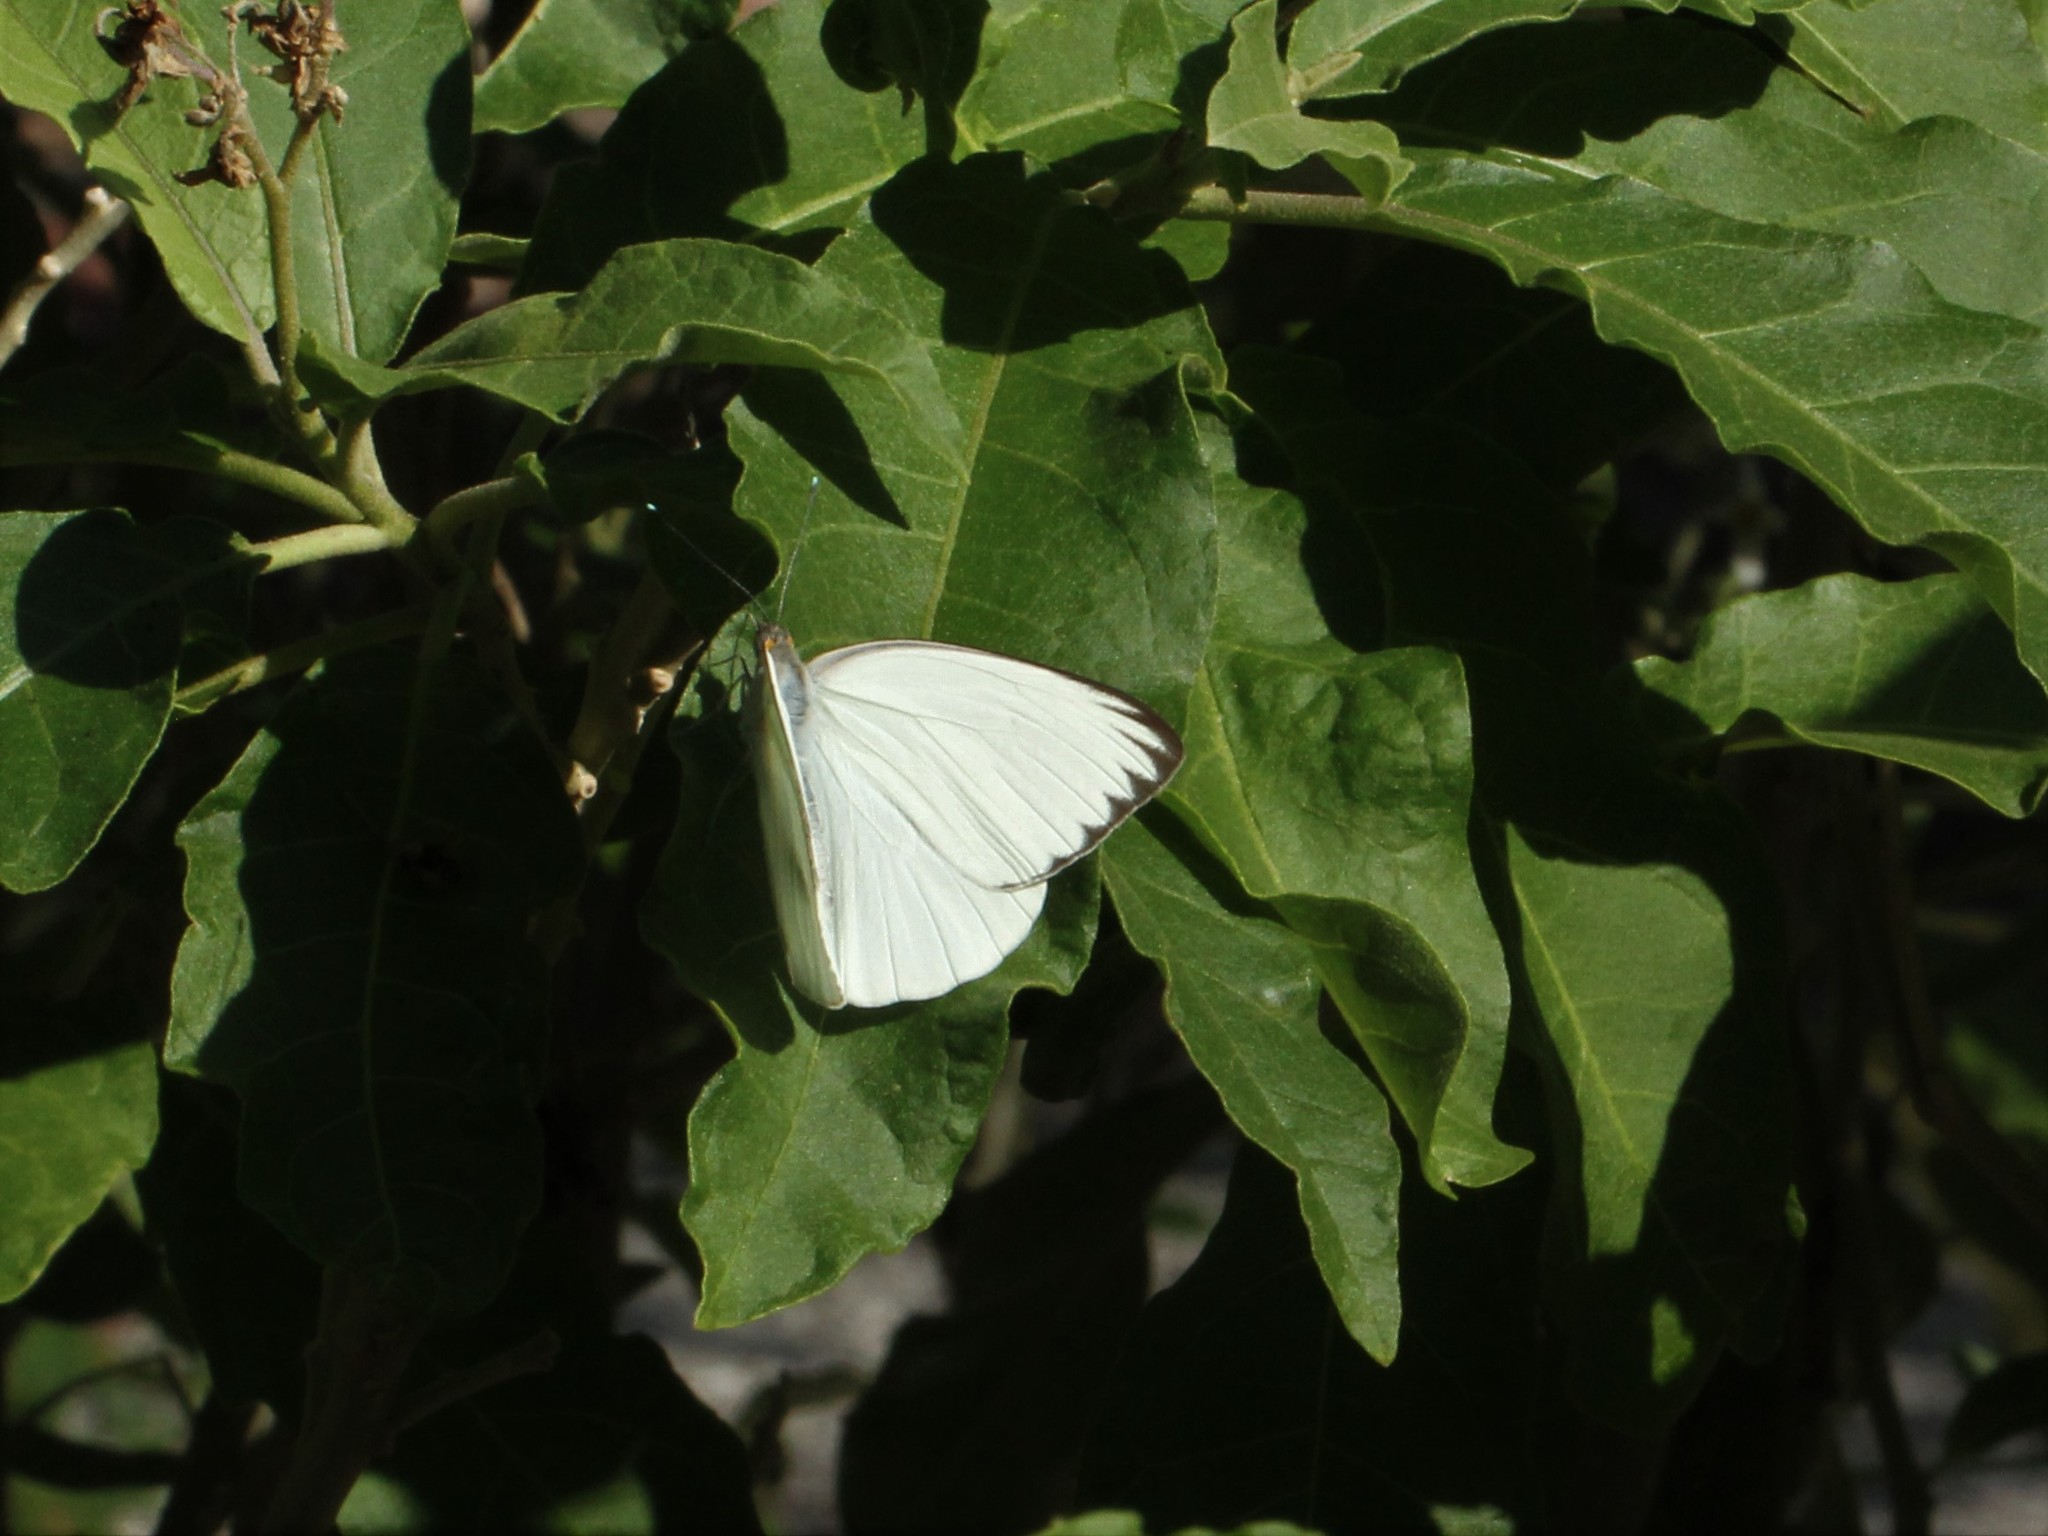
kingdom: Animalia
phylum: Arthropoda
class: Insecta
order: Lepidoptera
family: Pieridae
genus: Ascia
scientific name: Ascia monuste
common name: Great southern white
